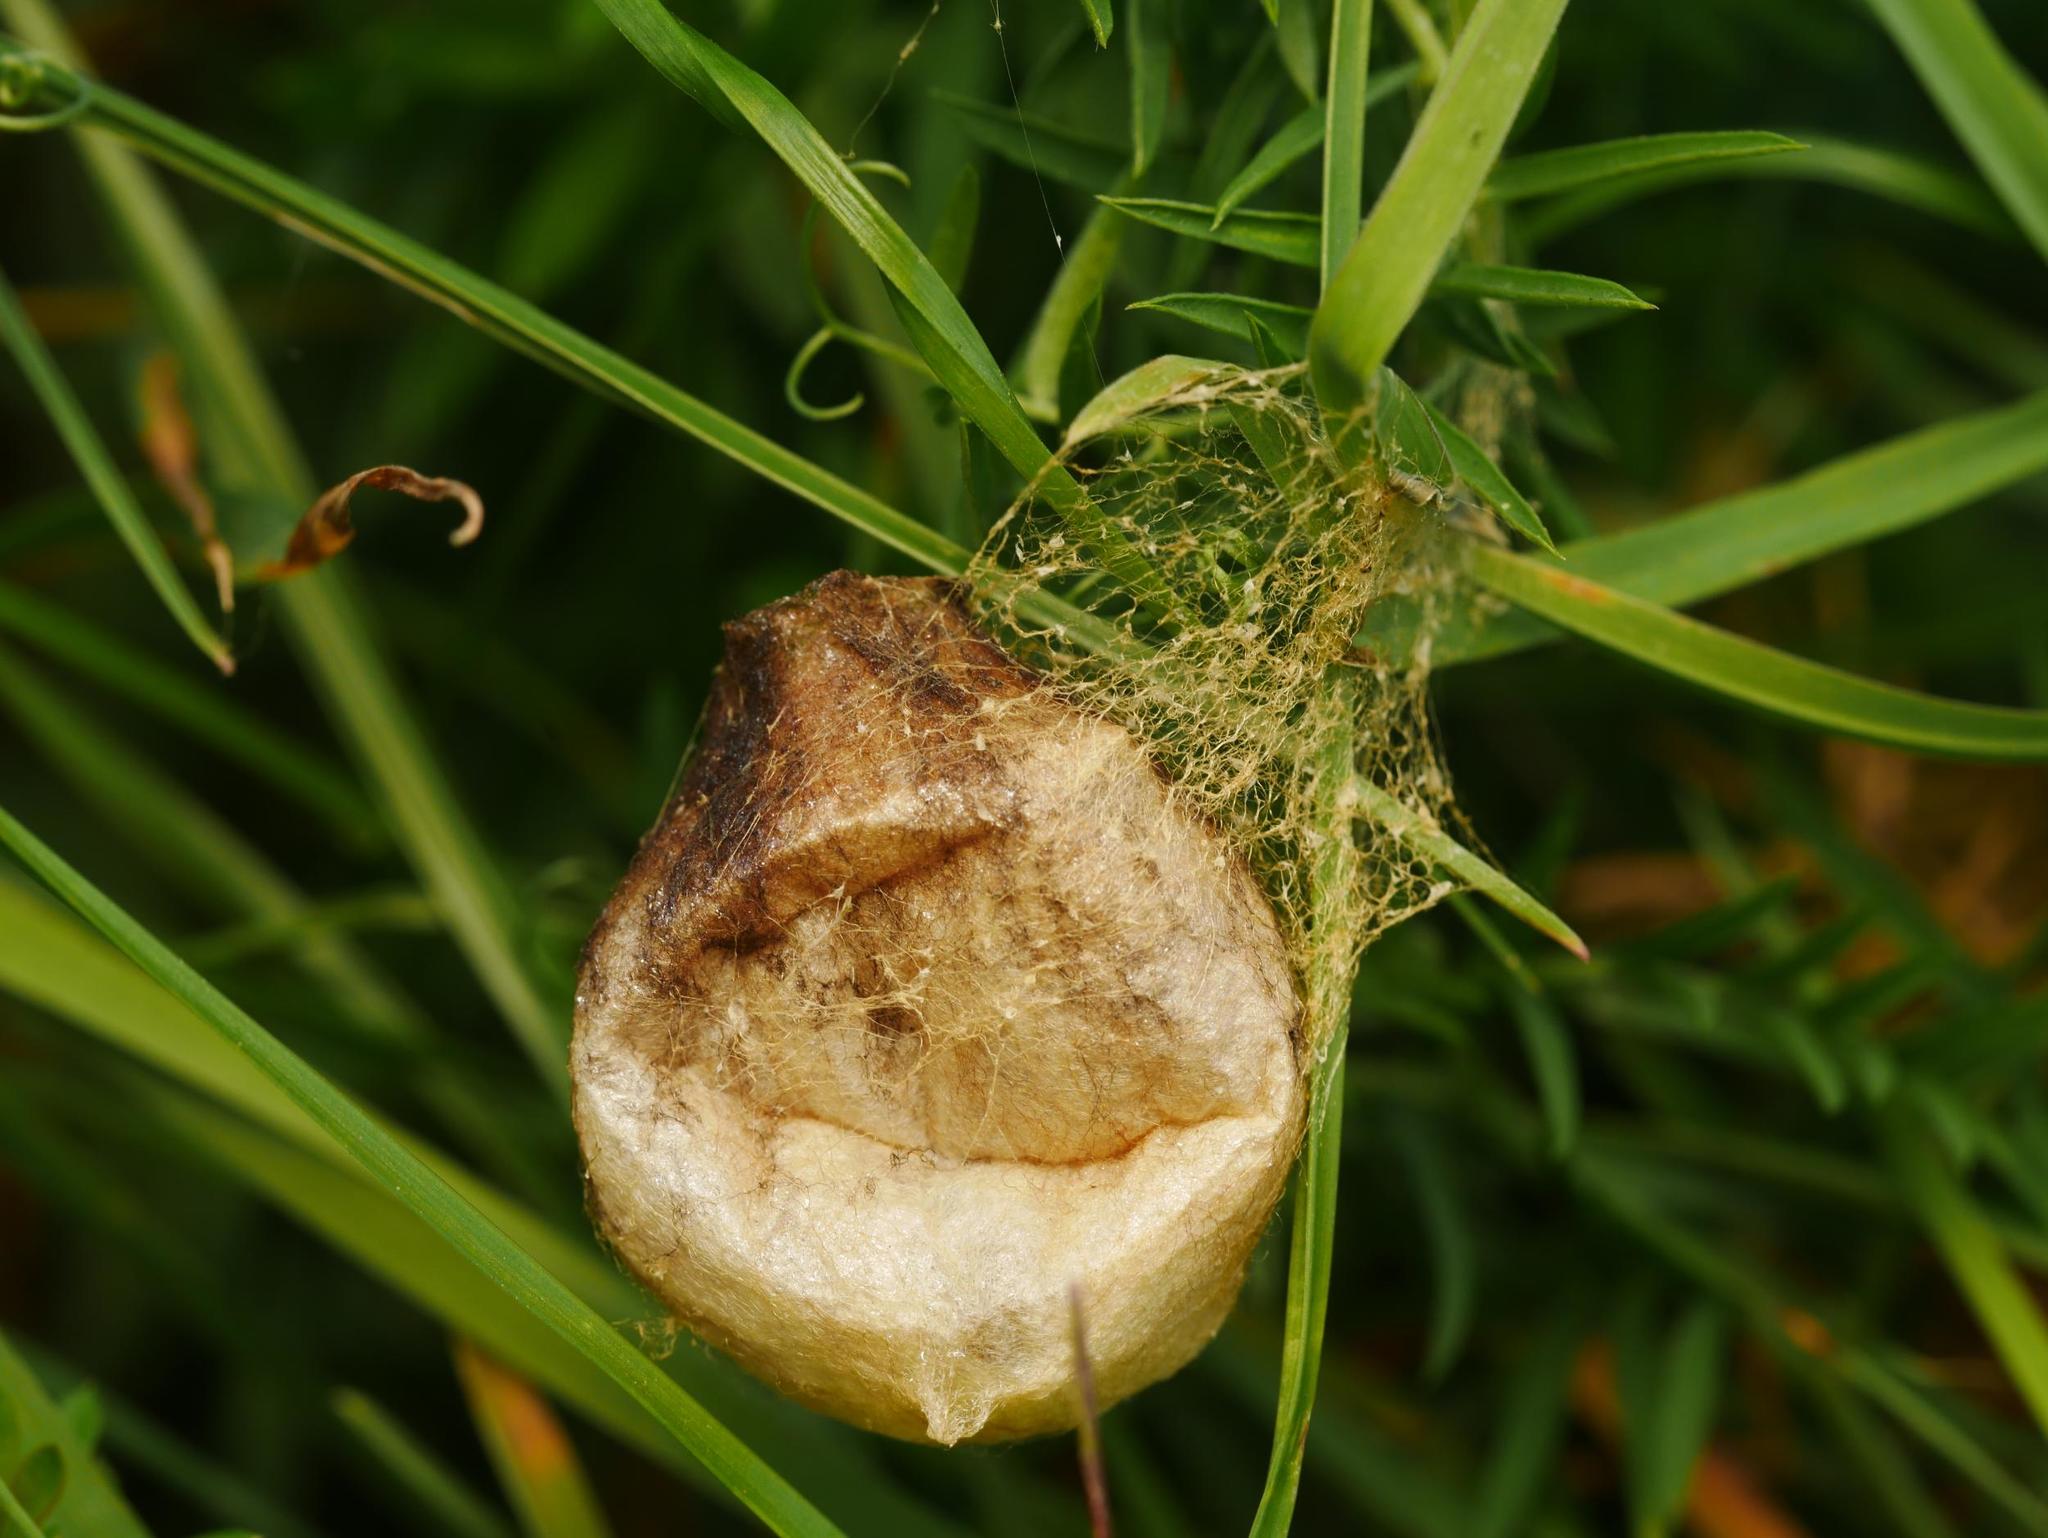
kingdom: Animalia
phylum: Arthropoda
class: Arachnida
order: Araneae
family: Araneidae
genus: Argiope
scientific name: Argiope bruennichi
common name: Wasp spider
